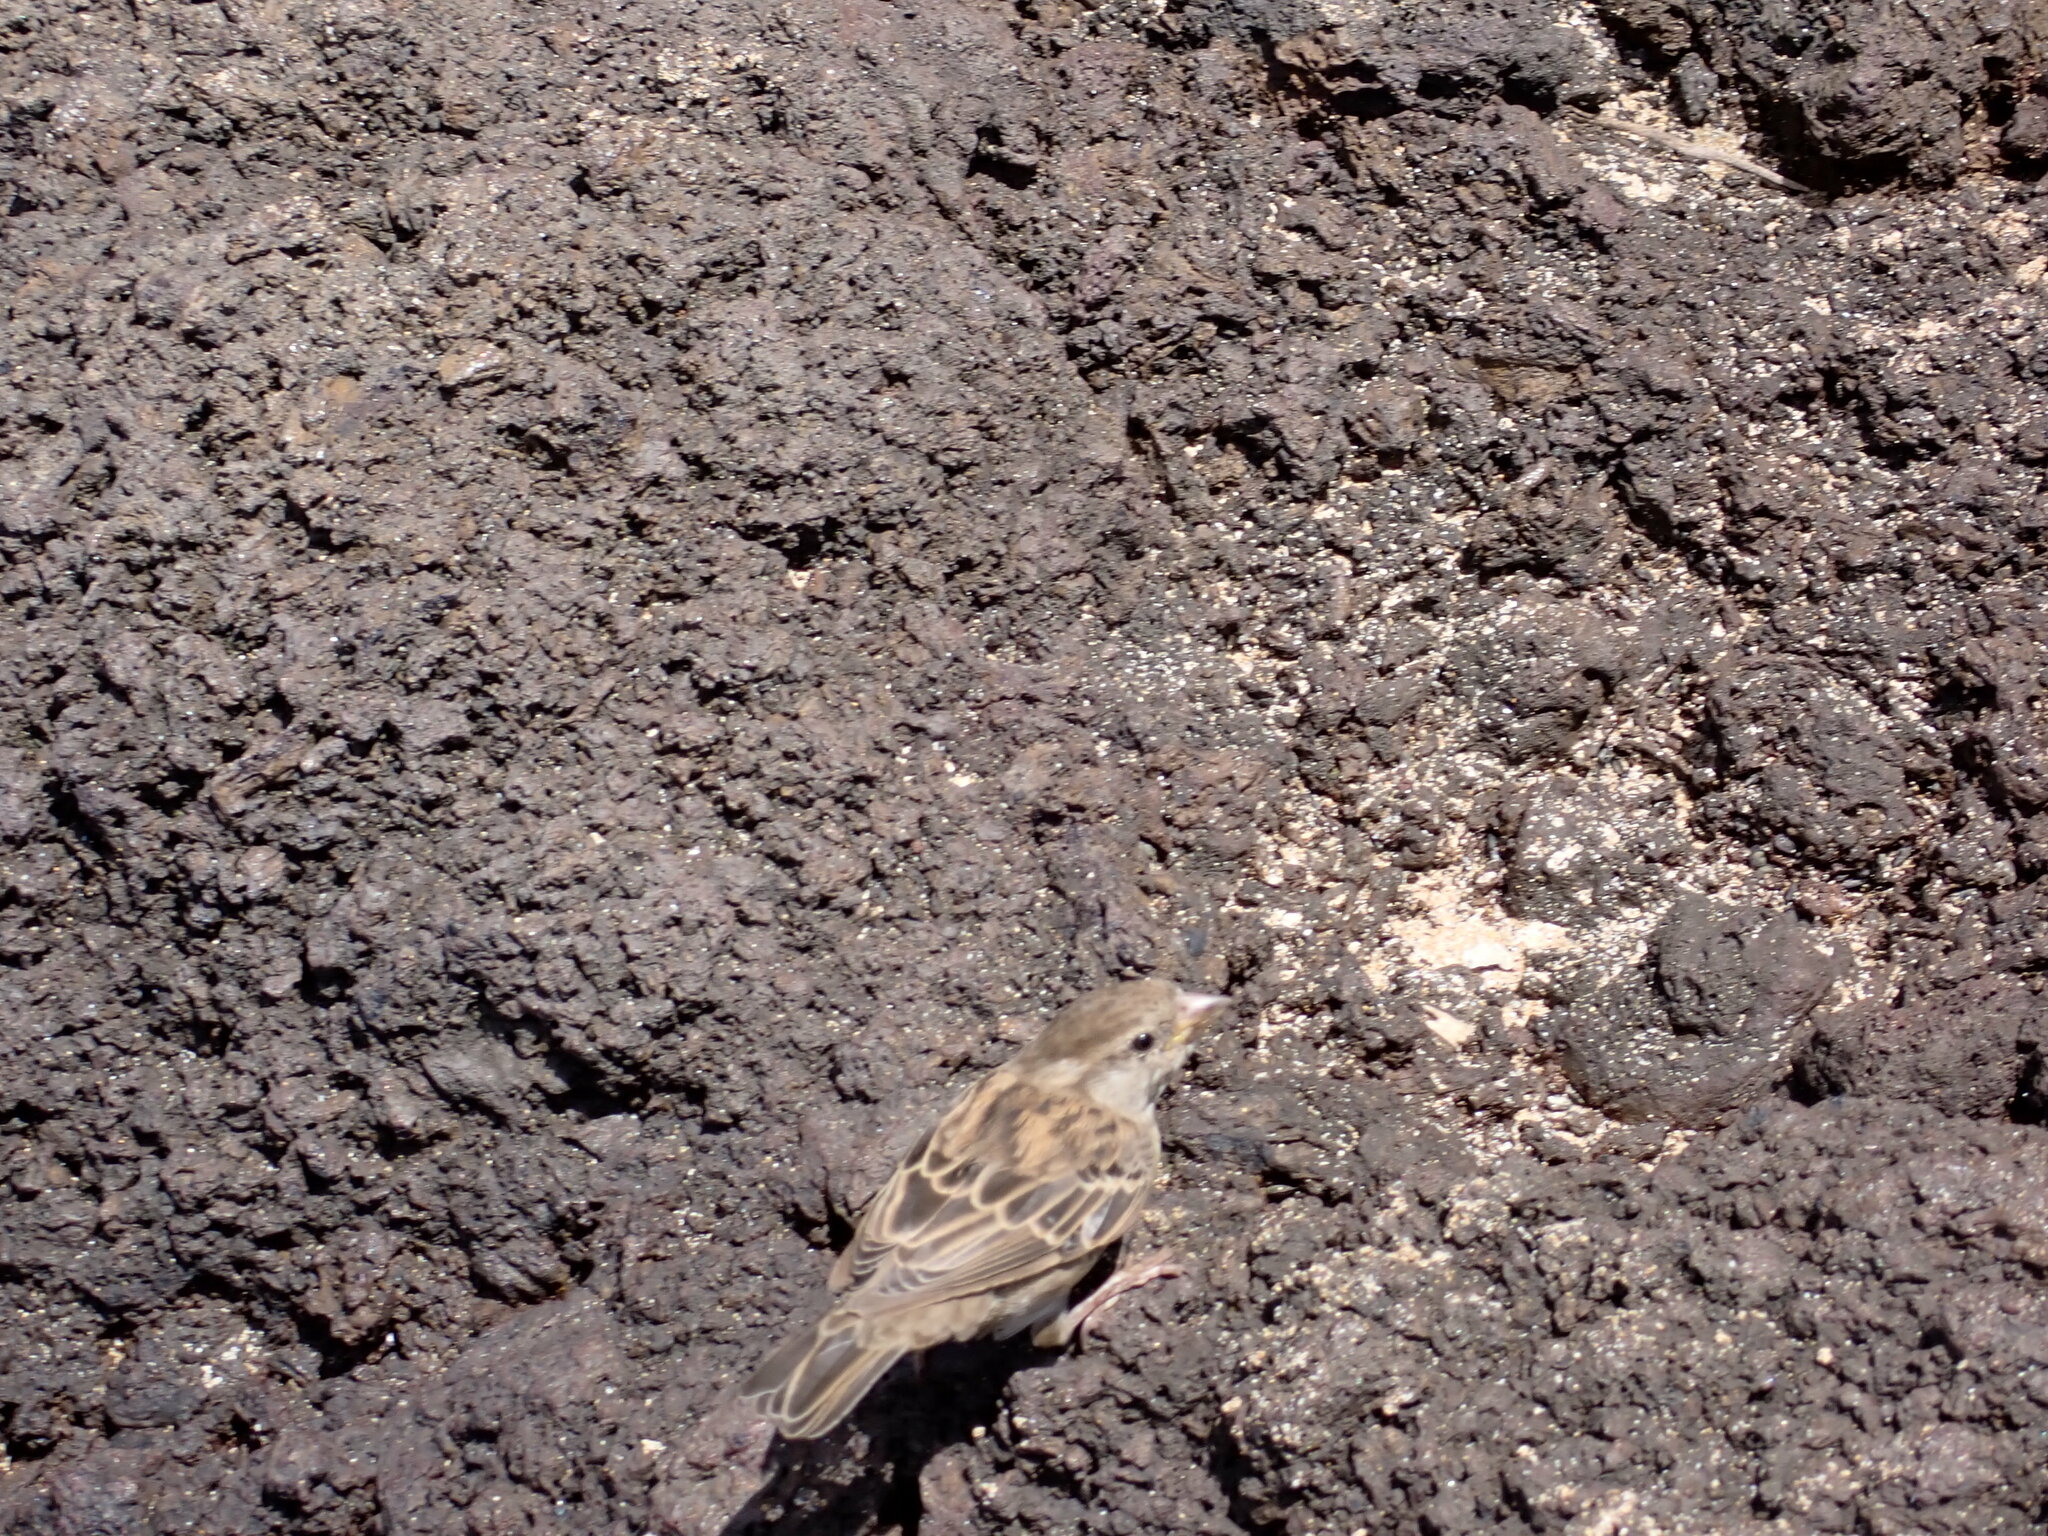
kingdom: Animalia
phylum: Chordata
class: Aves
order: Passeriformes
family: Passeridae
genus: Passer
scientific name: Passer domesticus
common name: House sparrow
